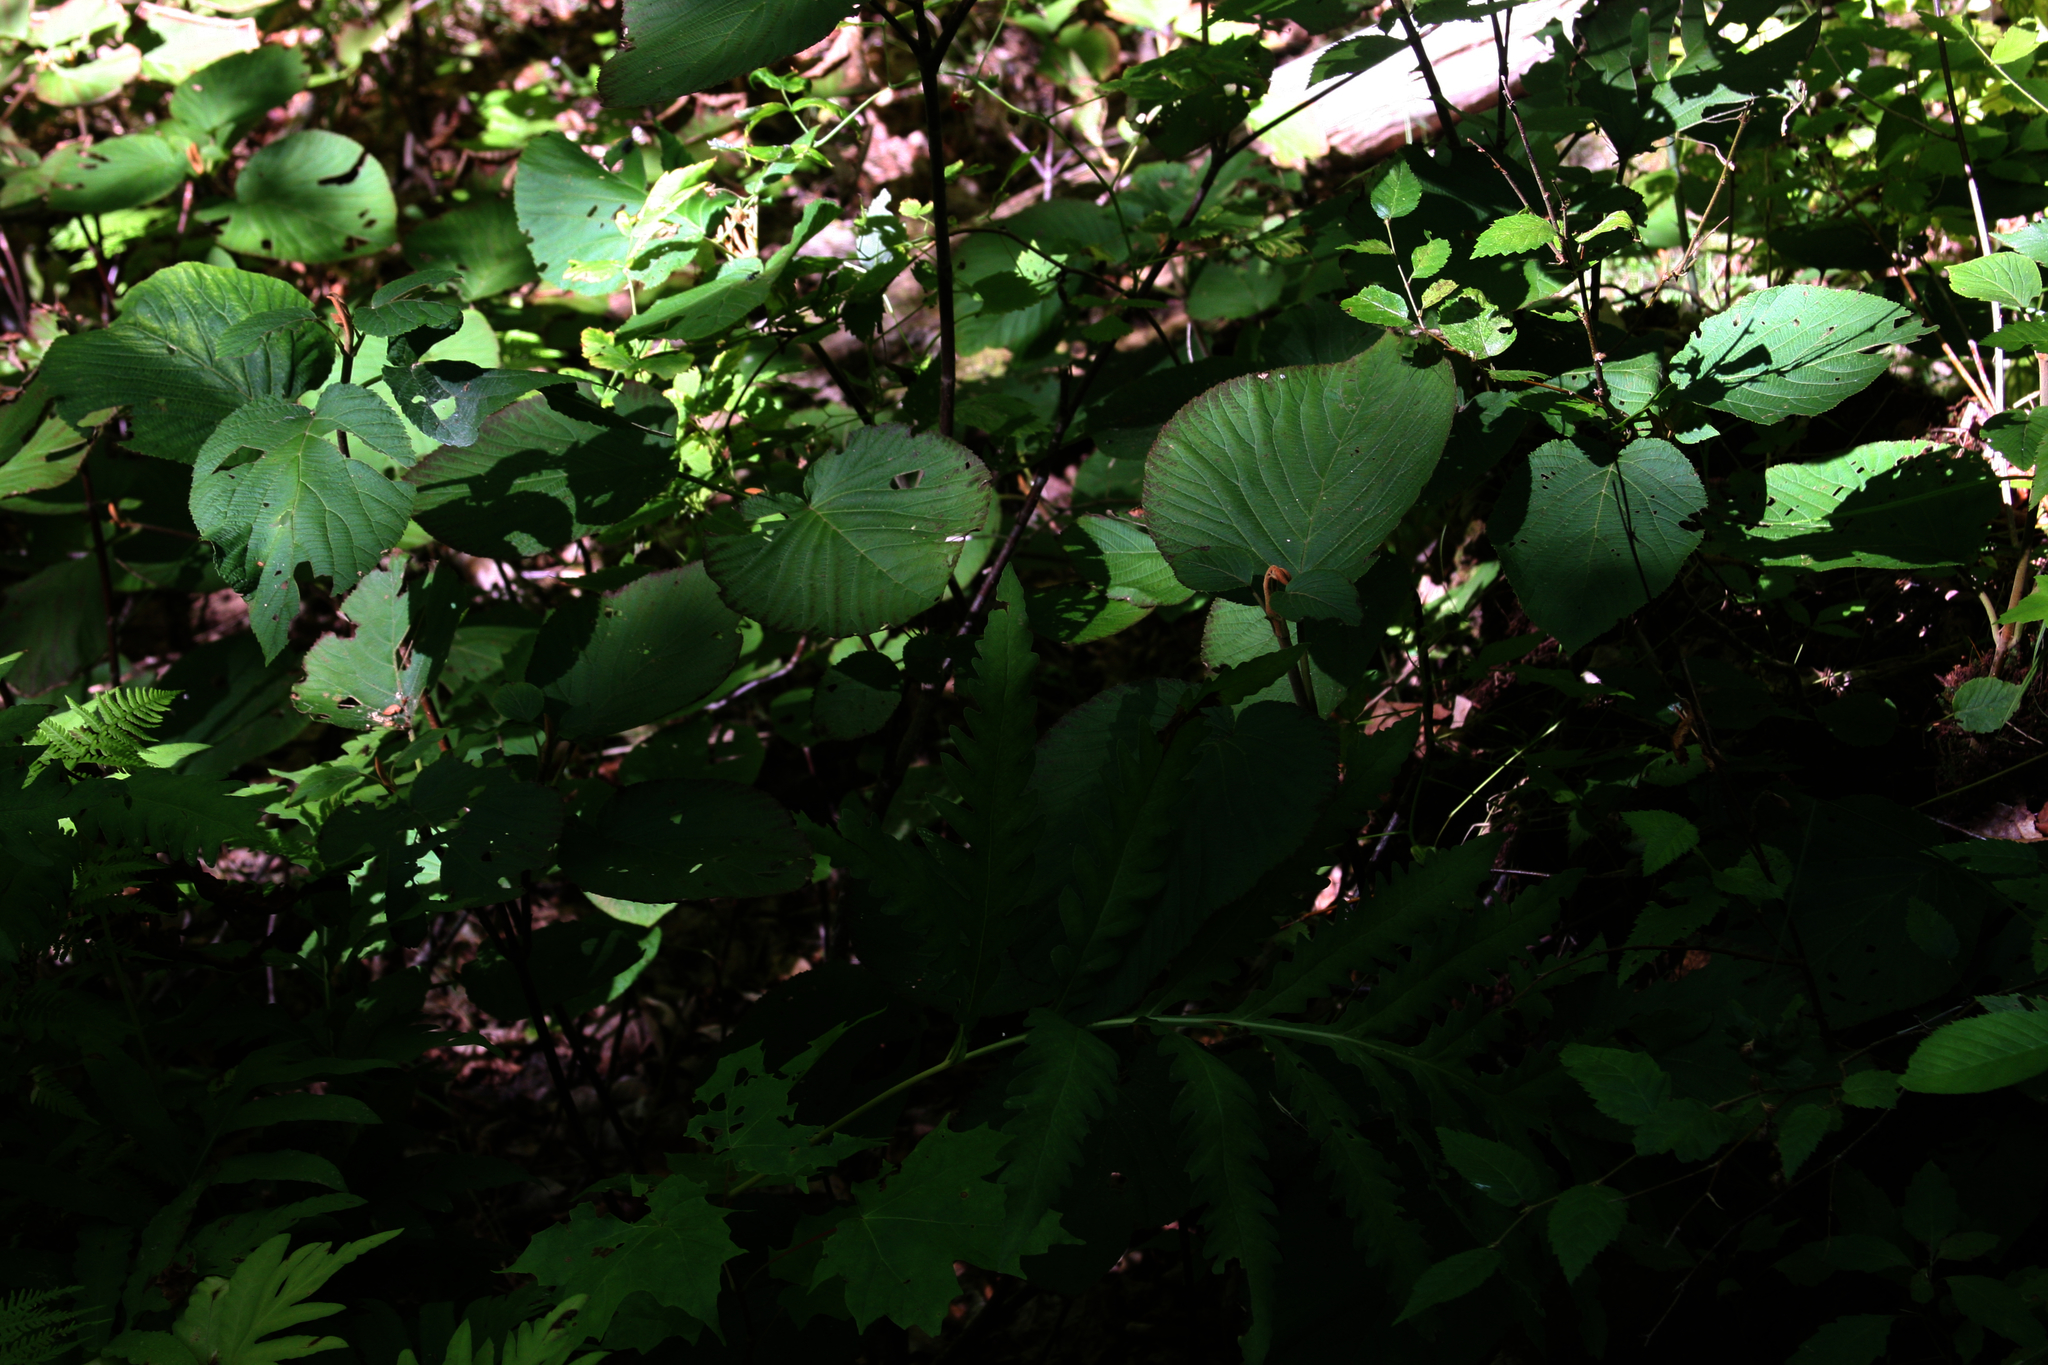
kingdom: Plantae
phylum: Tracheophyta
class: Magnoliopsida
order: Dipsacales
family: Viburnaceae
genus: Viburnum
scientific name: Viburnum lantanoides
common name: Hobblebush
